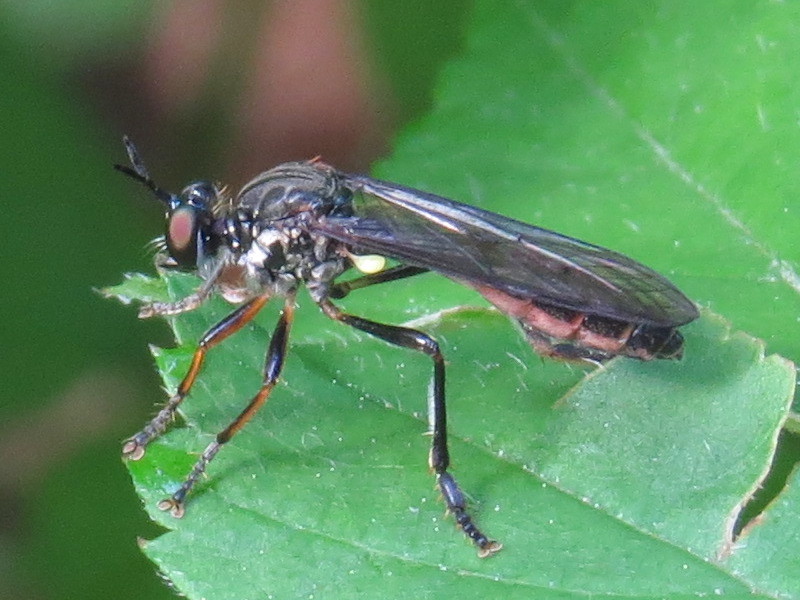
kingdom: Animalia
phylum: Arthropoda
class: Insecta
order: Diptera
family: Asilidae
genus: Dioctria
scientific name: Dioctria hyalipennis
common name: Stripe-legged robberfly
